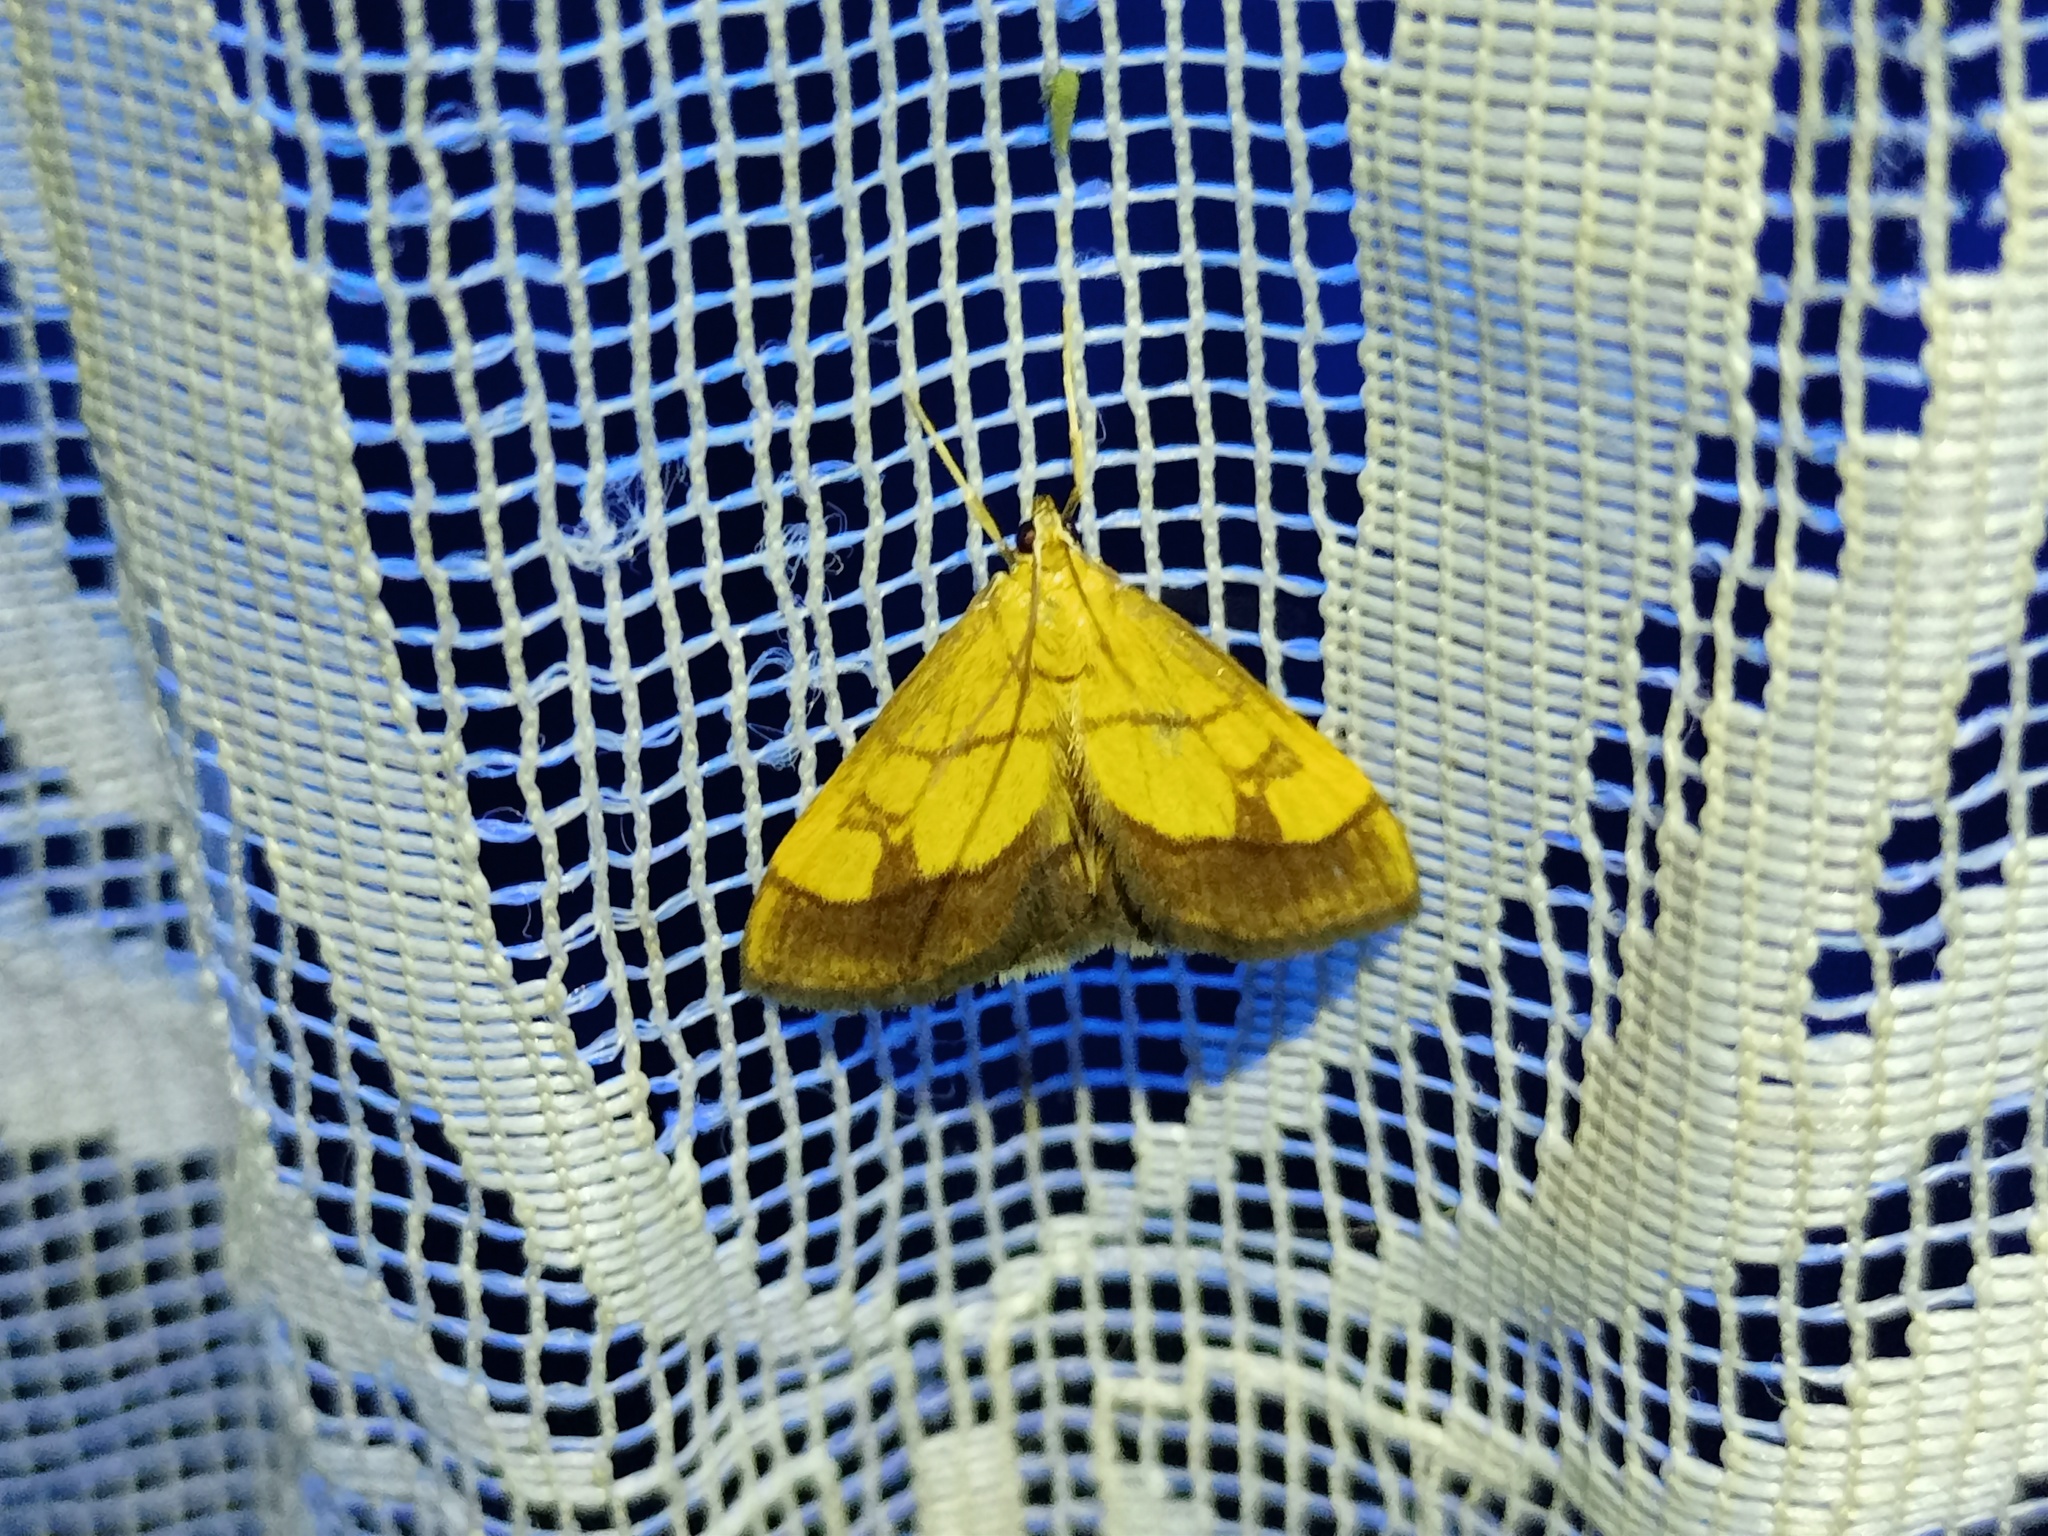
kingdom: Animalia
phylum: Arthropoda
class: Insecta
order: Lepidoptera
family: Crambidae
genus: Evergestis
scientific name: Evergestis limbata
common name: Dark bordered pearl
